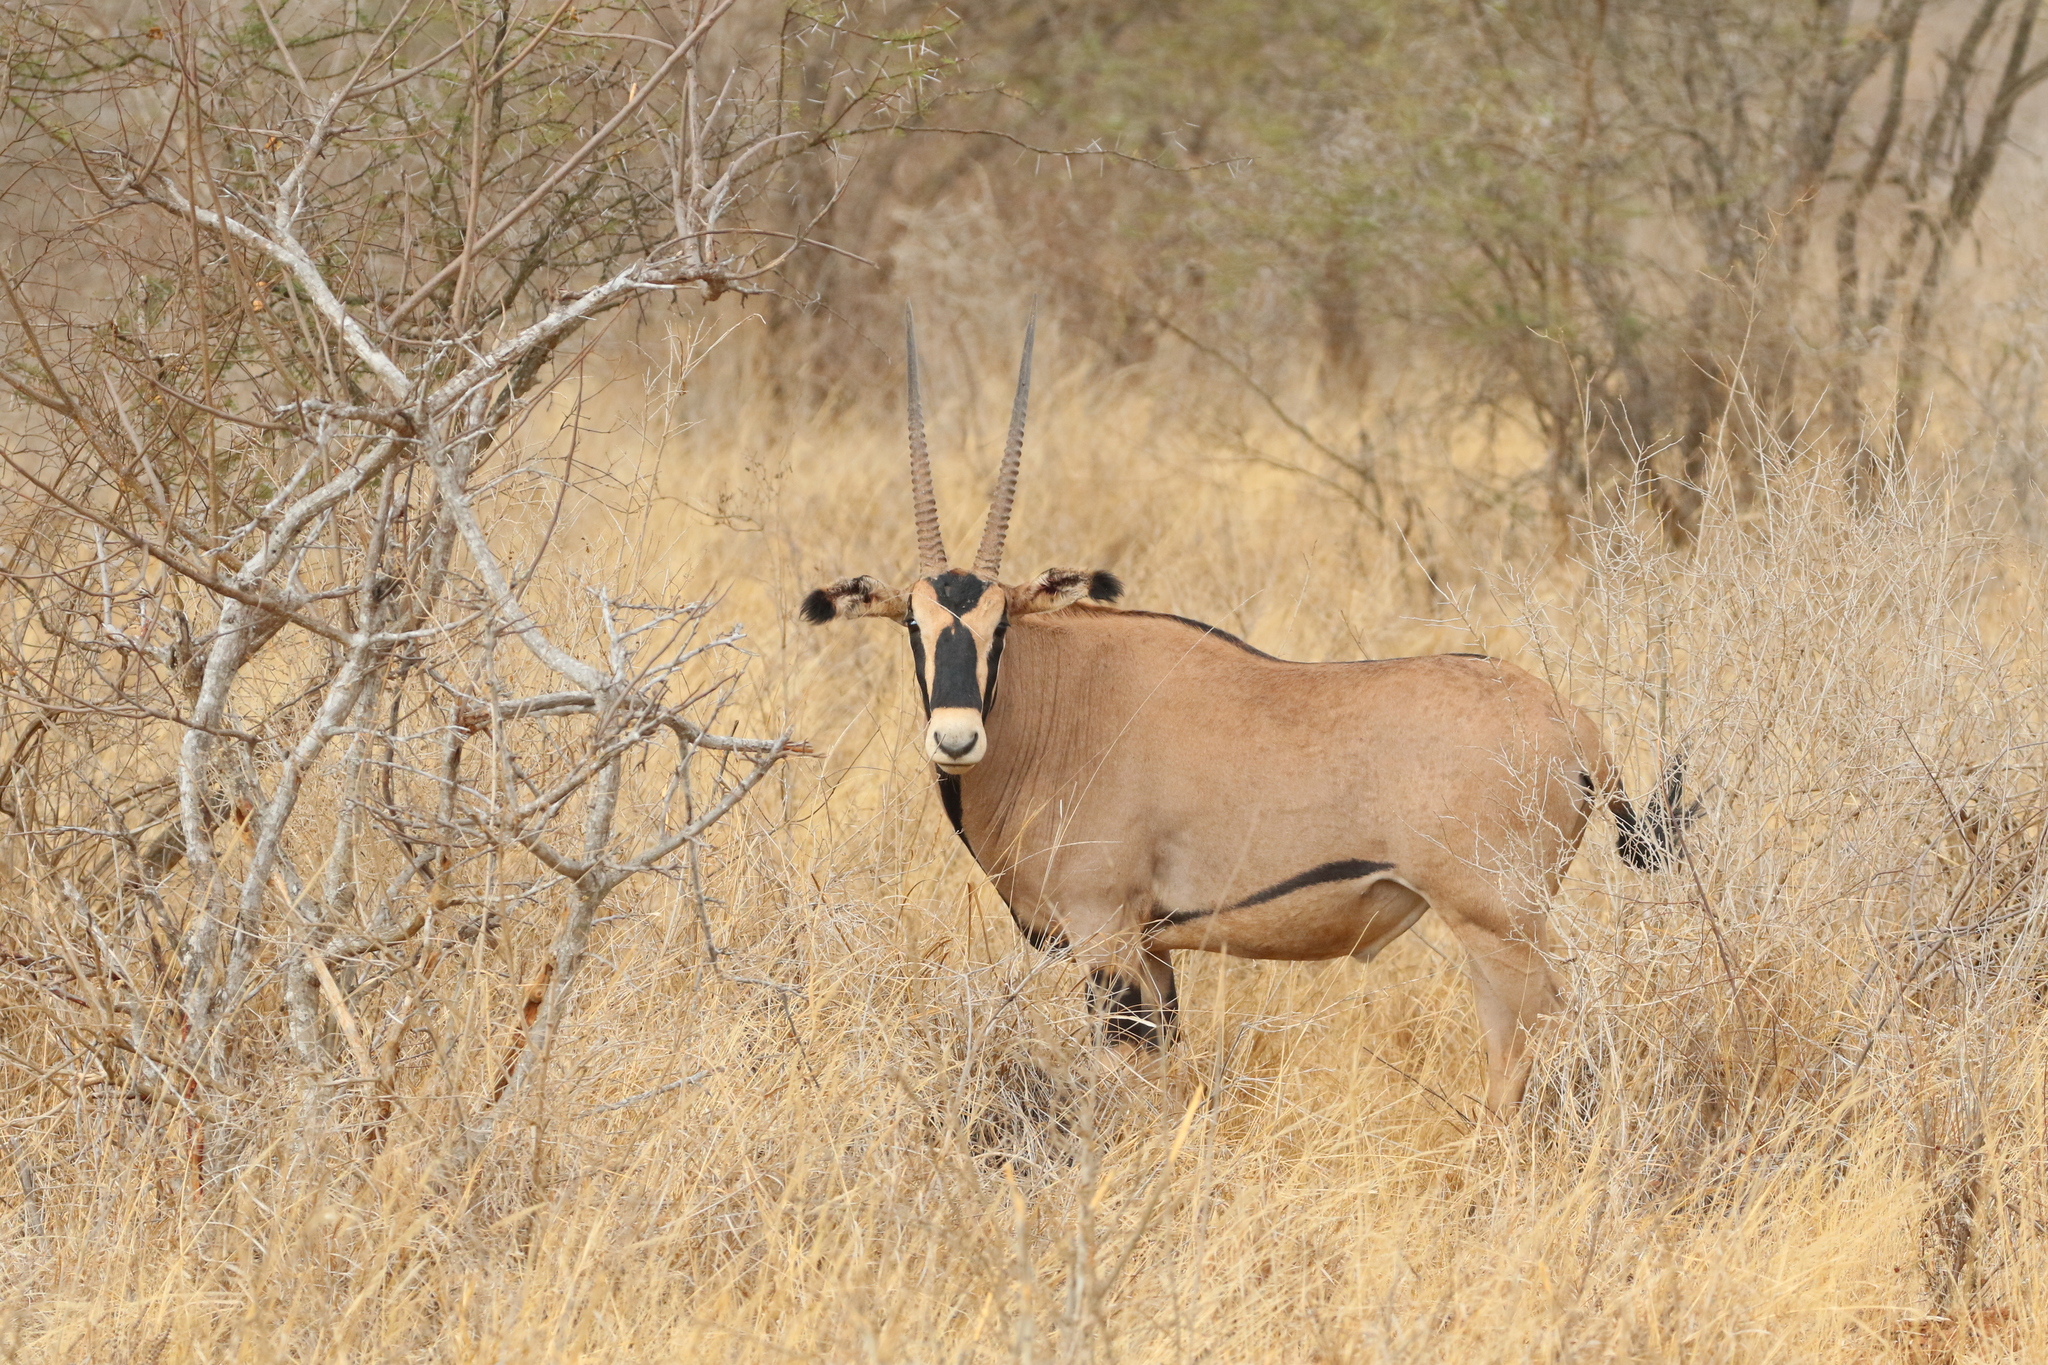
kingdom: Animalia
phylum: Chordata
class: Mammalia
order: Artiodactyla
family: Bovidae
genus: Oryx
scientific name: Oryx beisa
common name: Beisa
